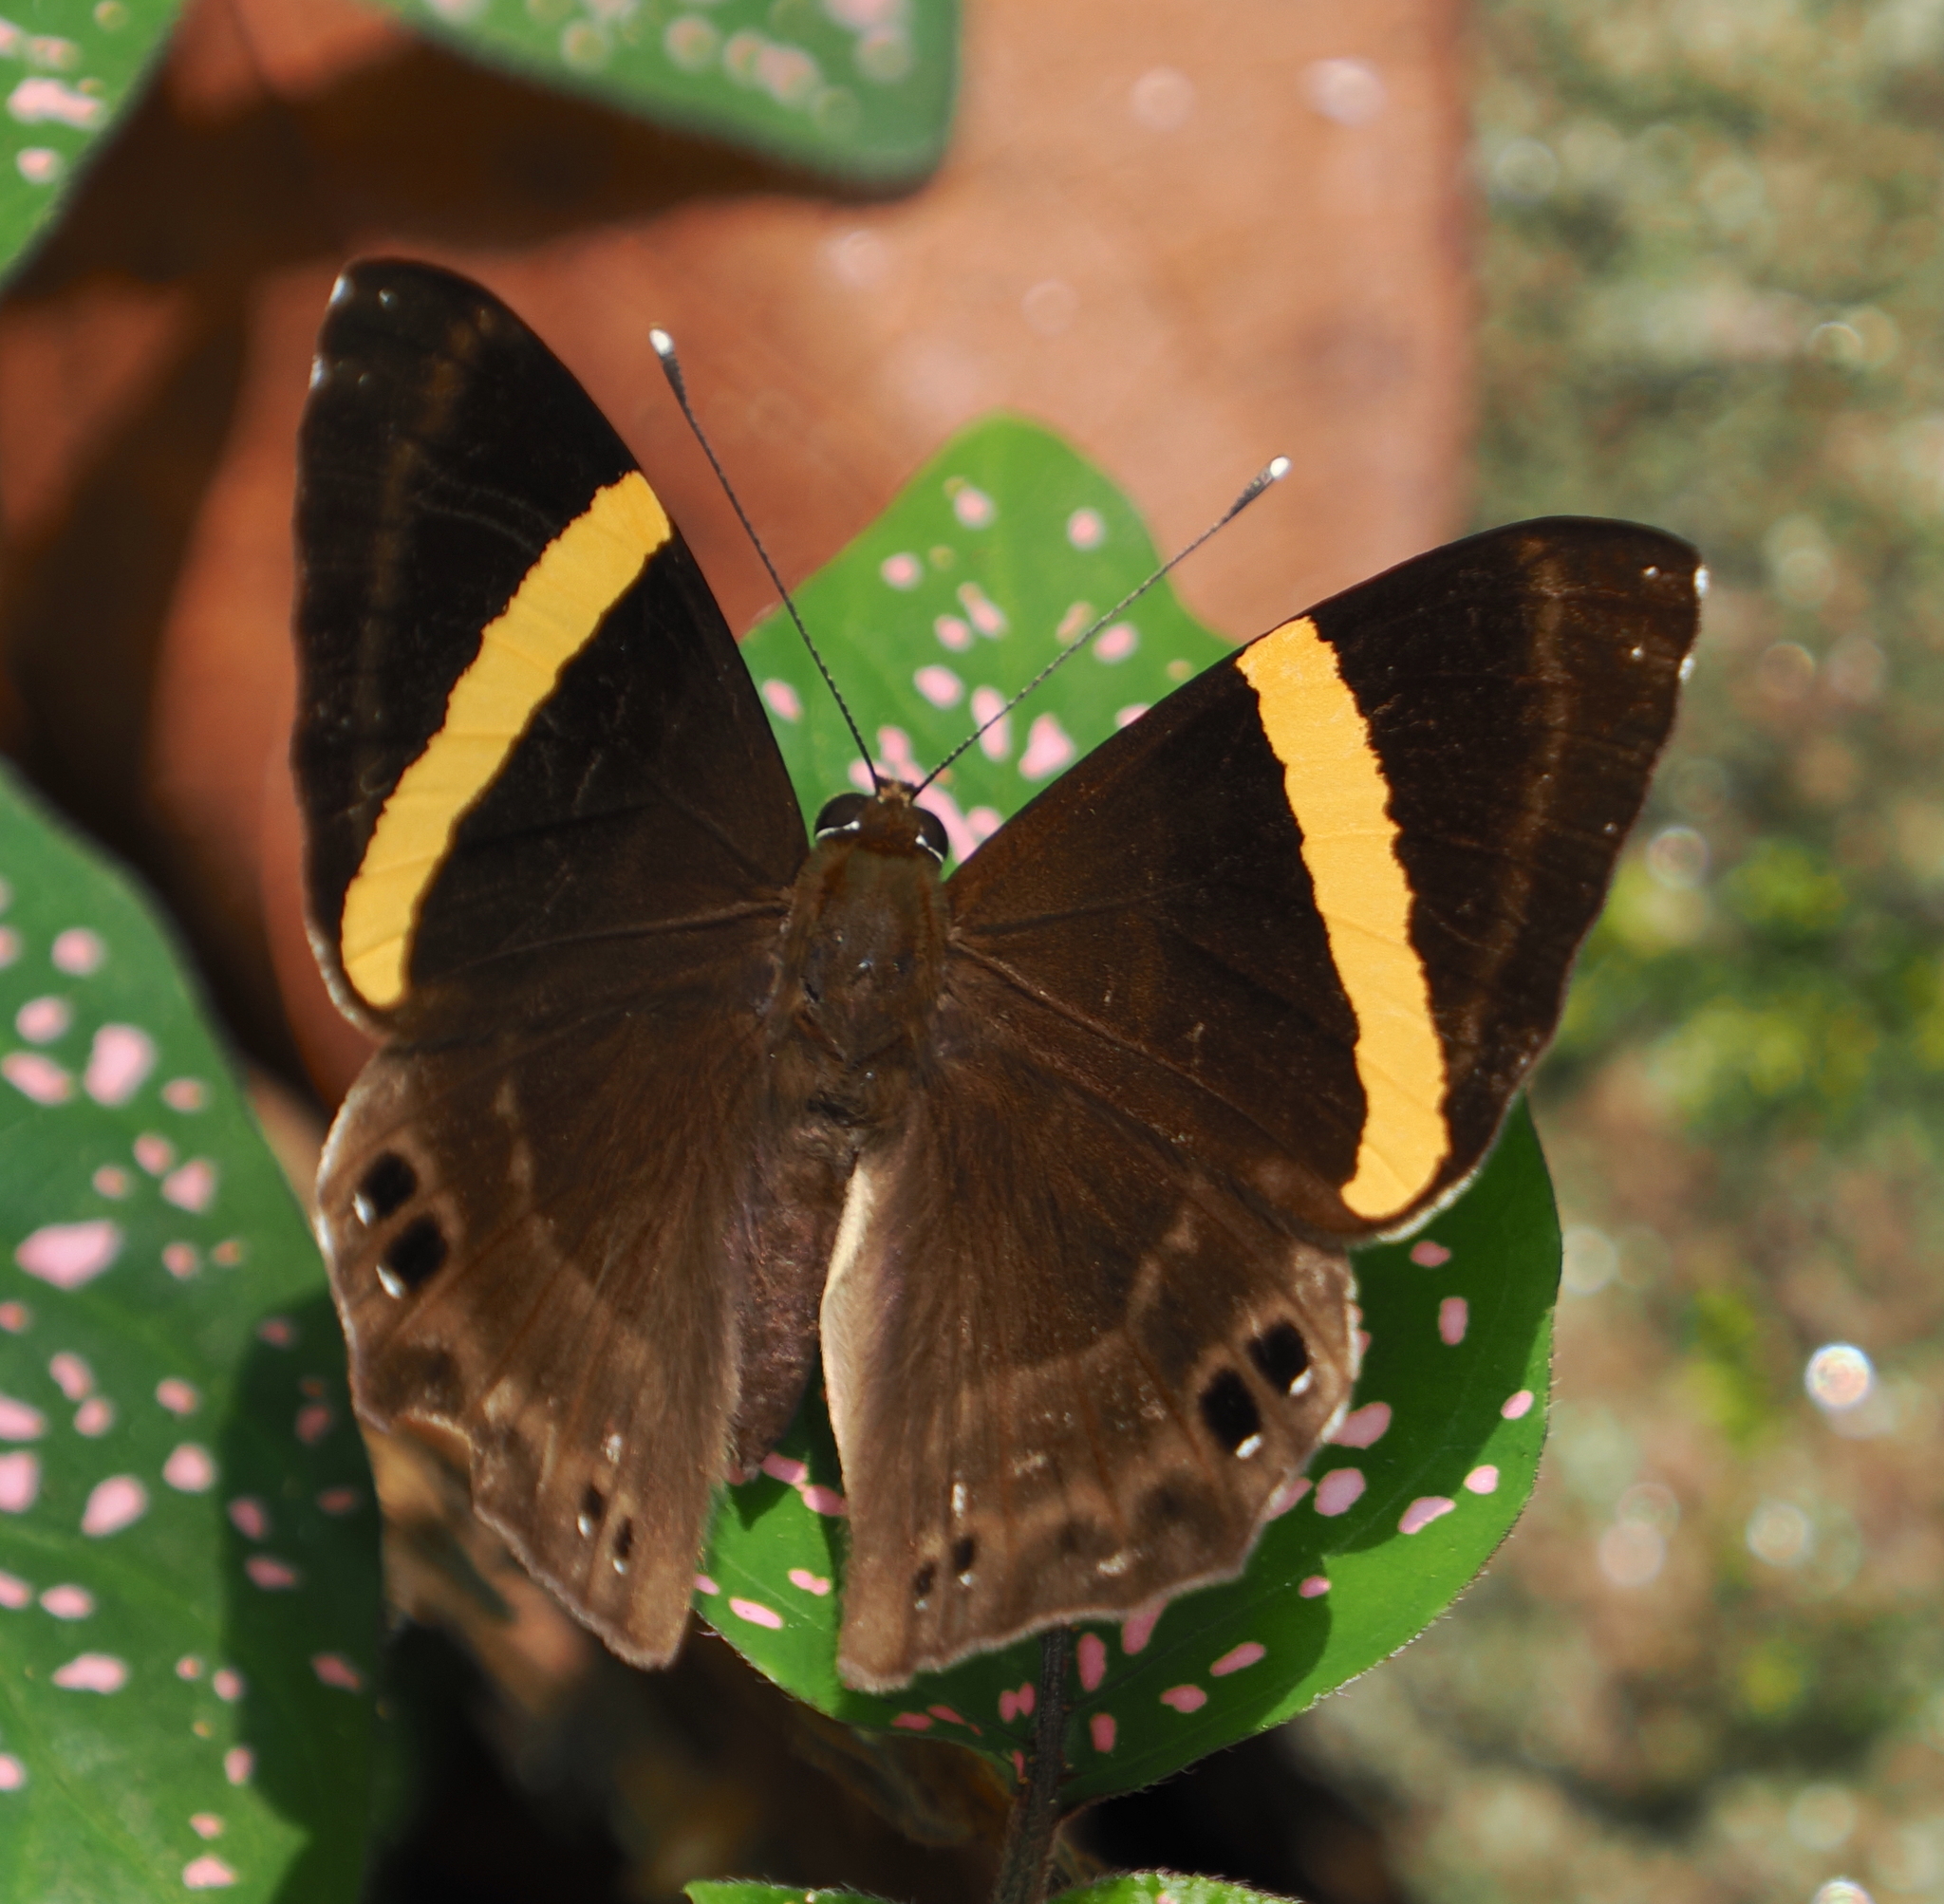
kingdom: Animalia
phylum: Arthropoda
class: Insecta
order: Lepidoptera
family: Lycaenidae
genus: Abisara
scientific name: Abisara fylla
